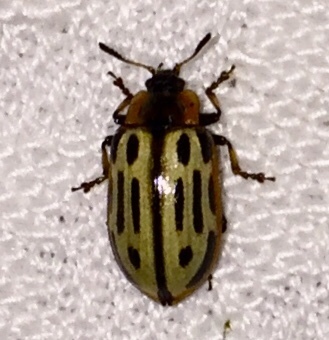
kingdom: Animalia
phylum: Arthropoda
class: Insecta
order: Coleoptera
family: Chrysomelidae
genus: Aethiopocassis
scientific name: Aethiopocassis scripta
